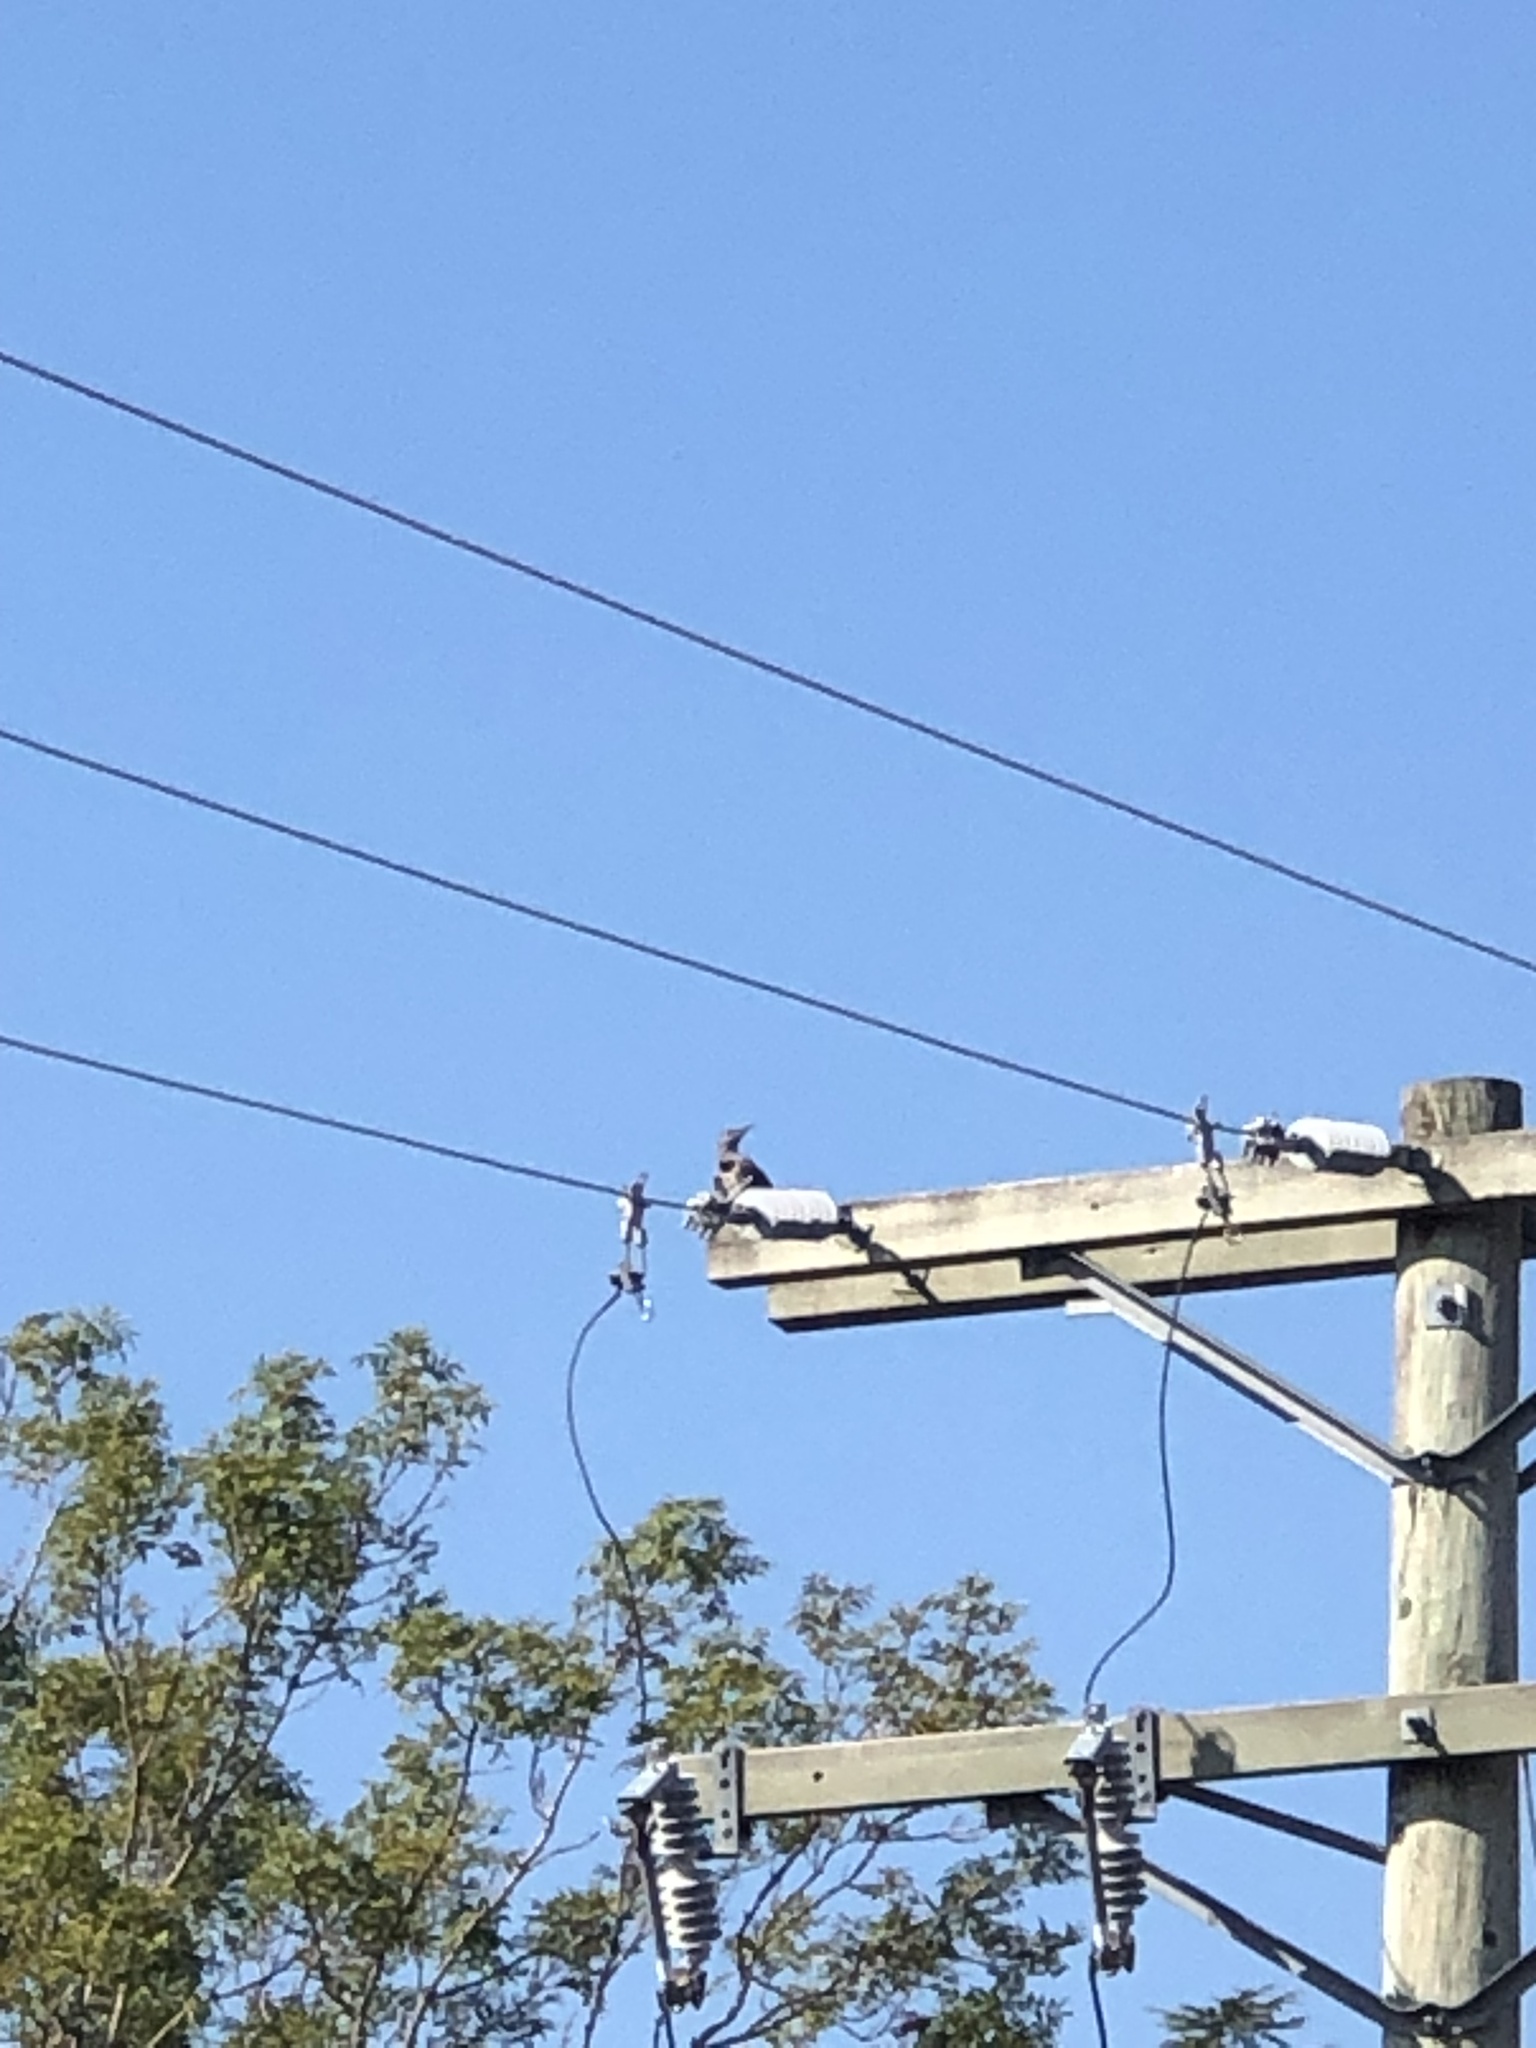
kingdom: Animalia
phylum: Chordata
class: Aves
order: Piciformes
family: Picidae
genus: Colaptes
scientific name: Colaptes auratus
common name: Northern flicker
